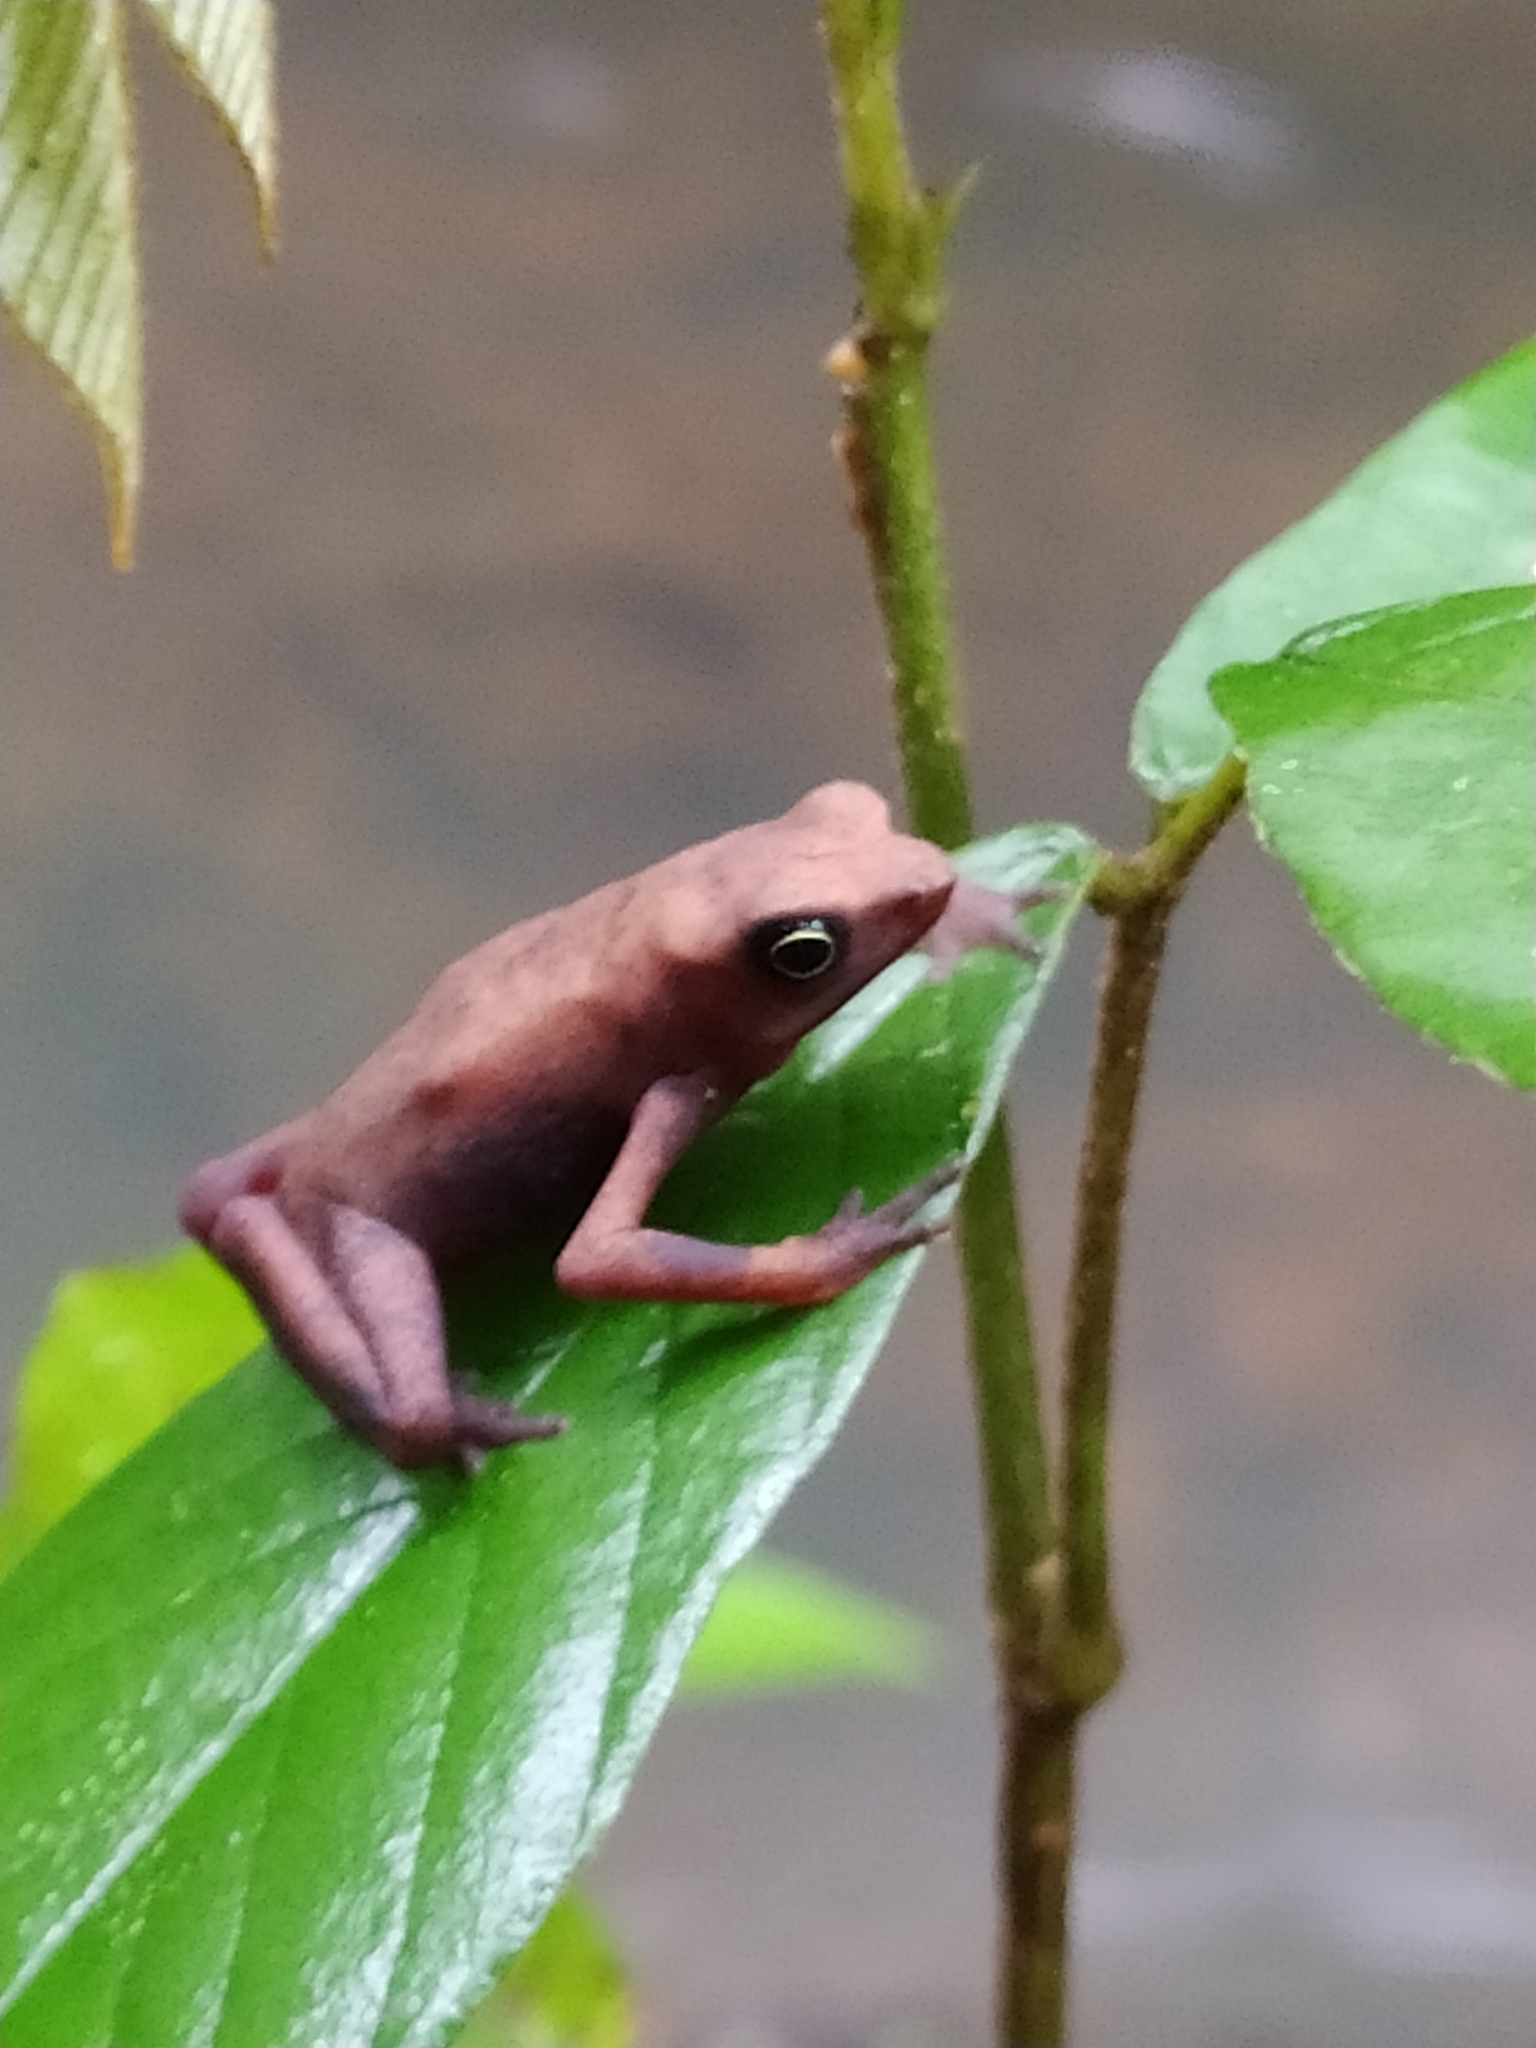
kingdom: Animalia
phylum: Chordata
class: Amphibia
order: Anura
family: Bufonidae
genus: Atelopus
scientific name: Atelopus flavescens
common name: Cayenne stubfoot toad
